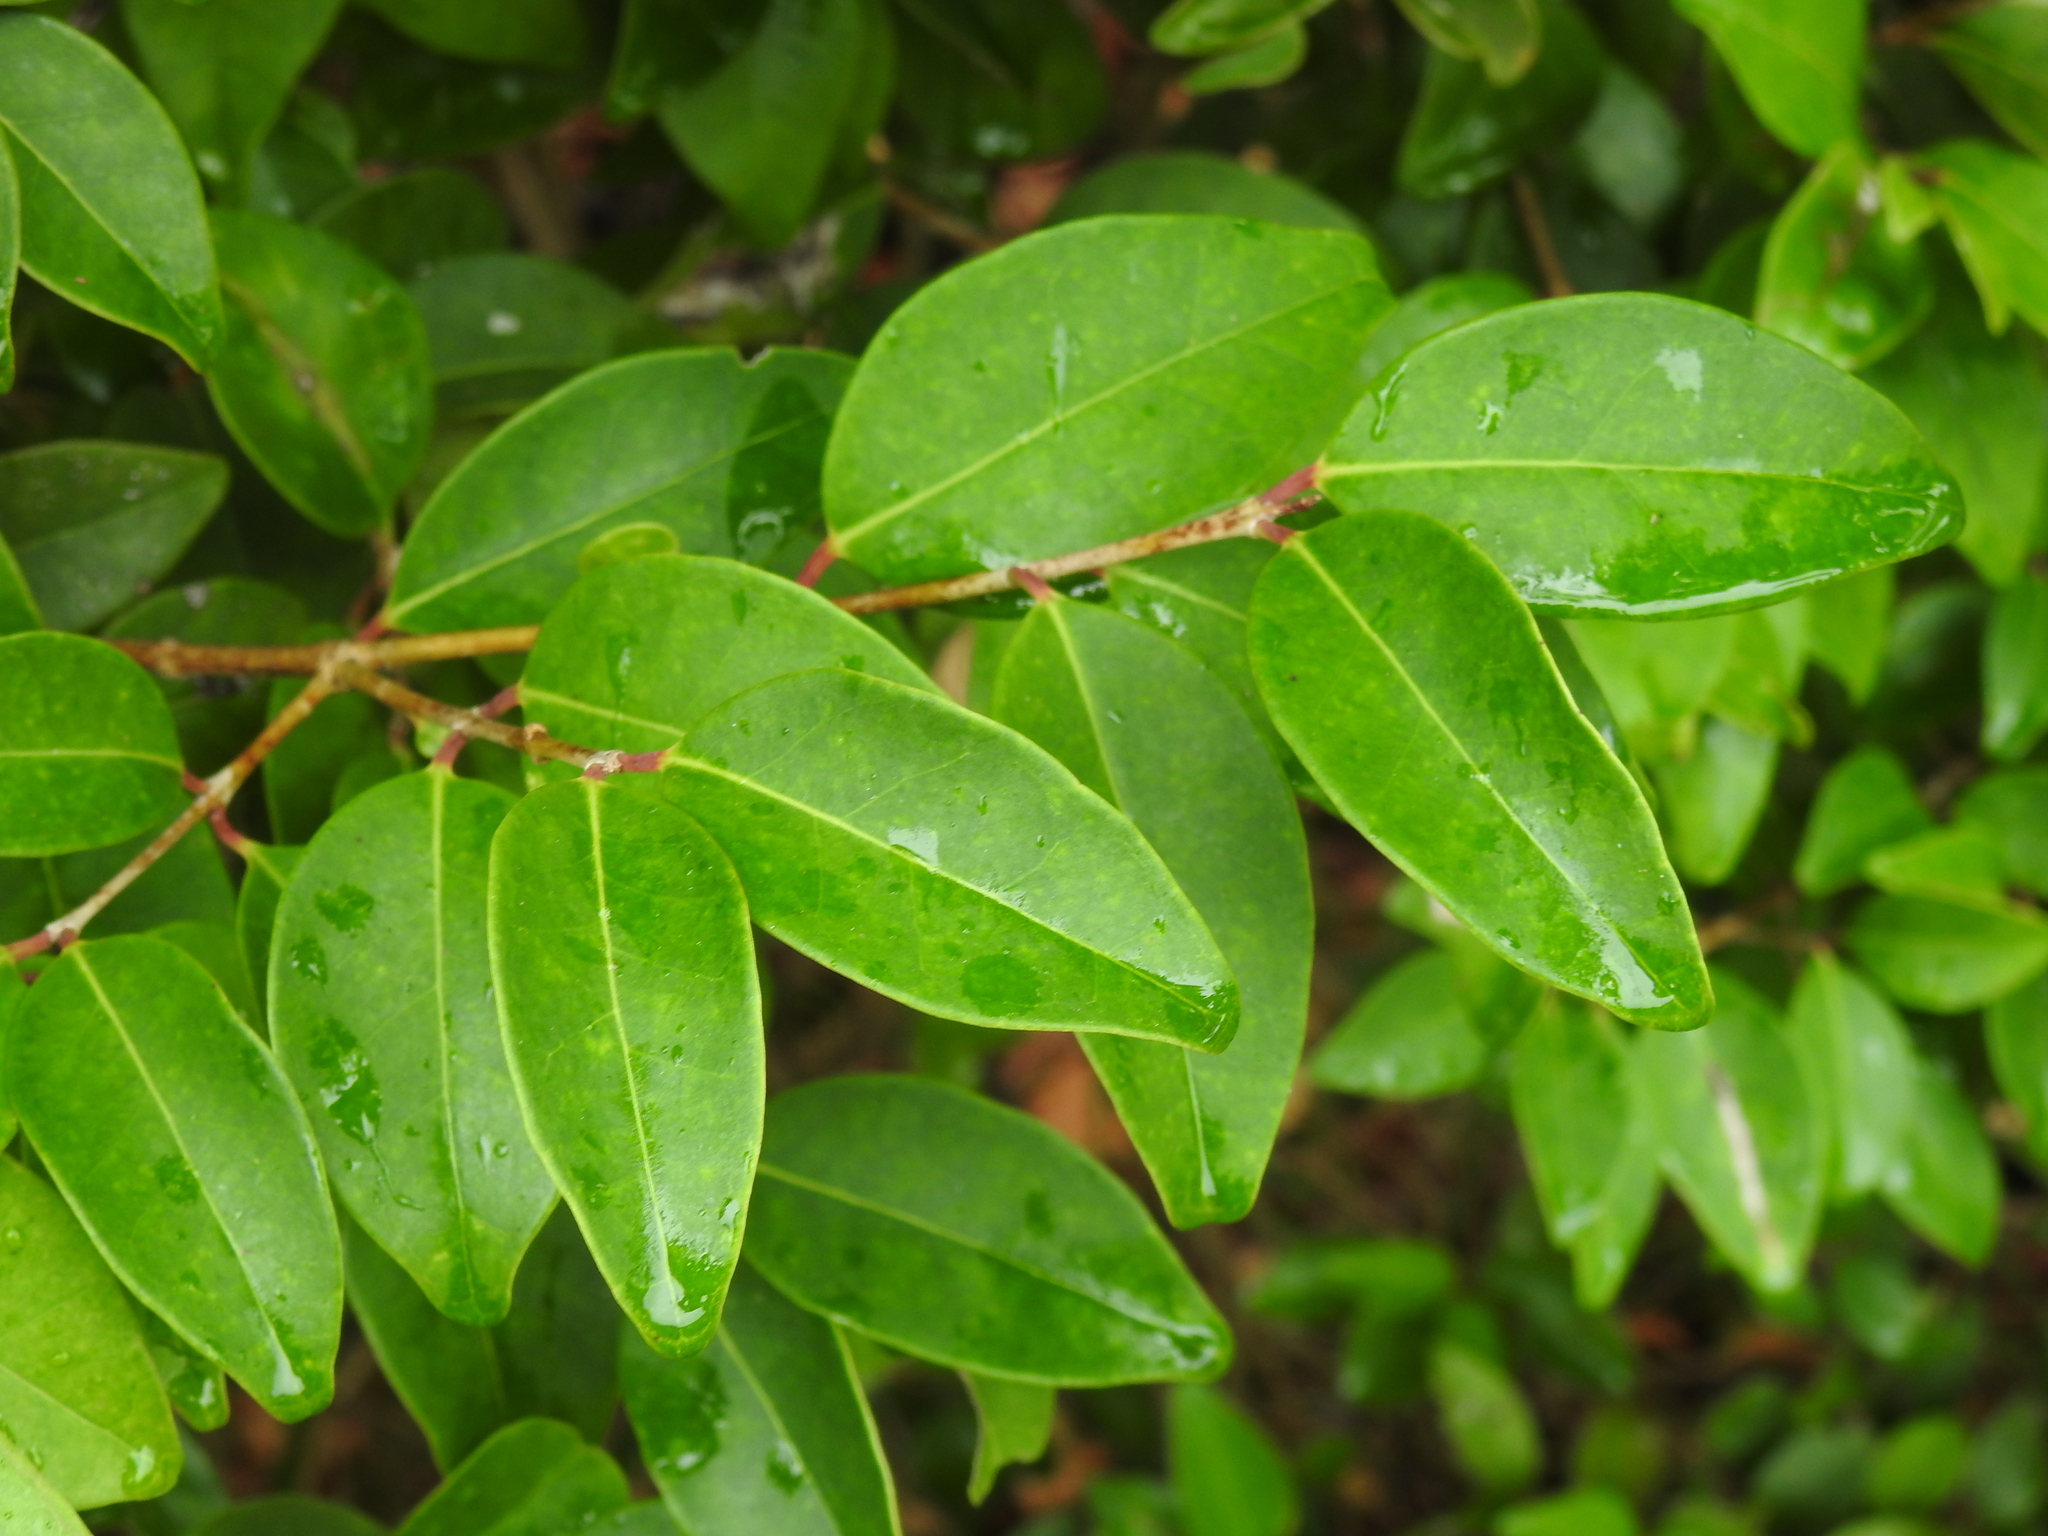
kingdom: Plantae
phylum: Tracheophyta
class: Magnoliopsida
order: Myrtales
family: Myrtaceae
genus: Eugenia
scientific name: Eugenia axillaris
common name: Choaky berry
